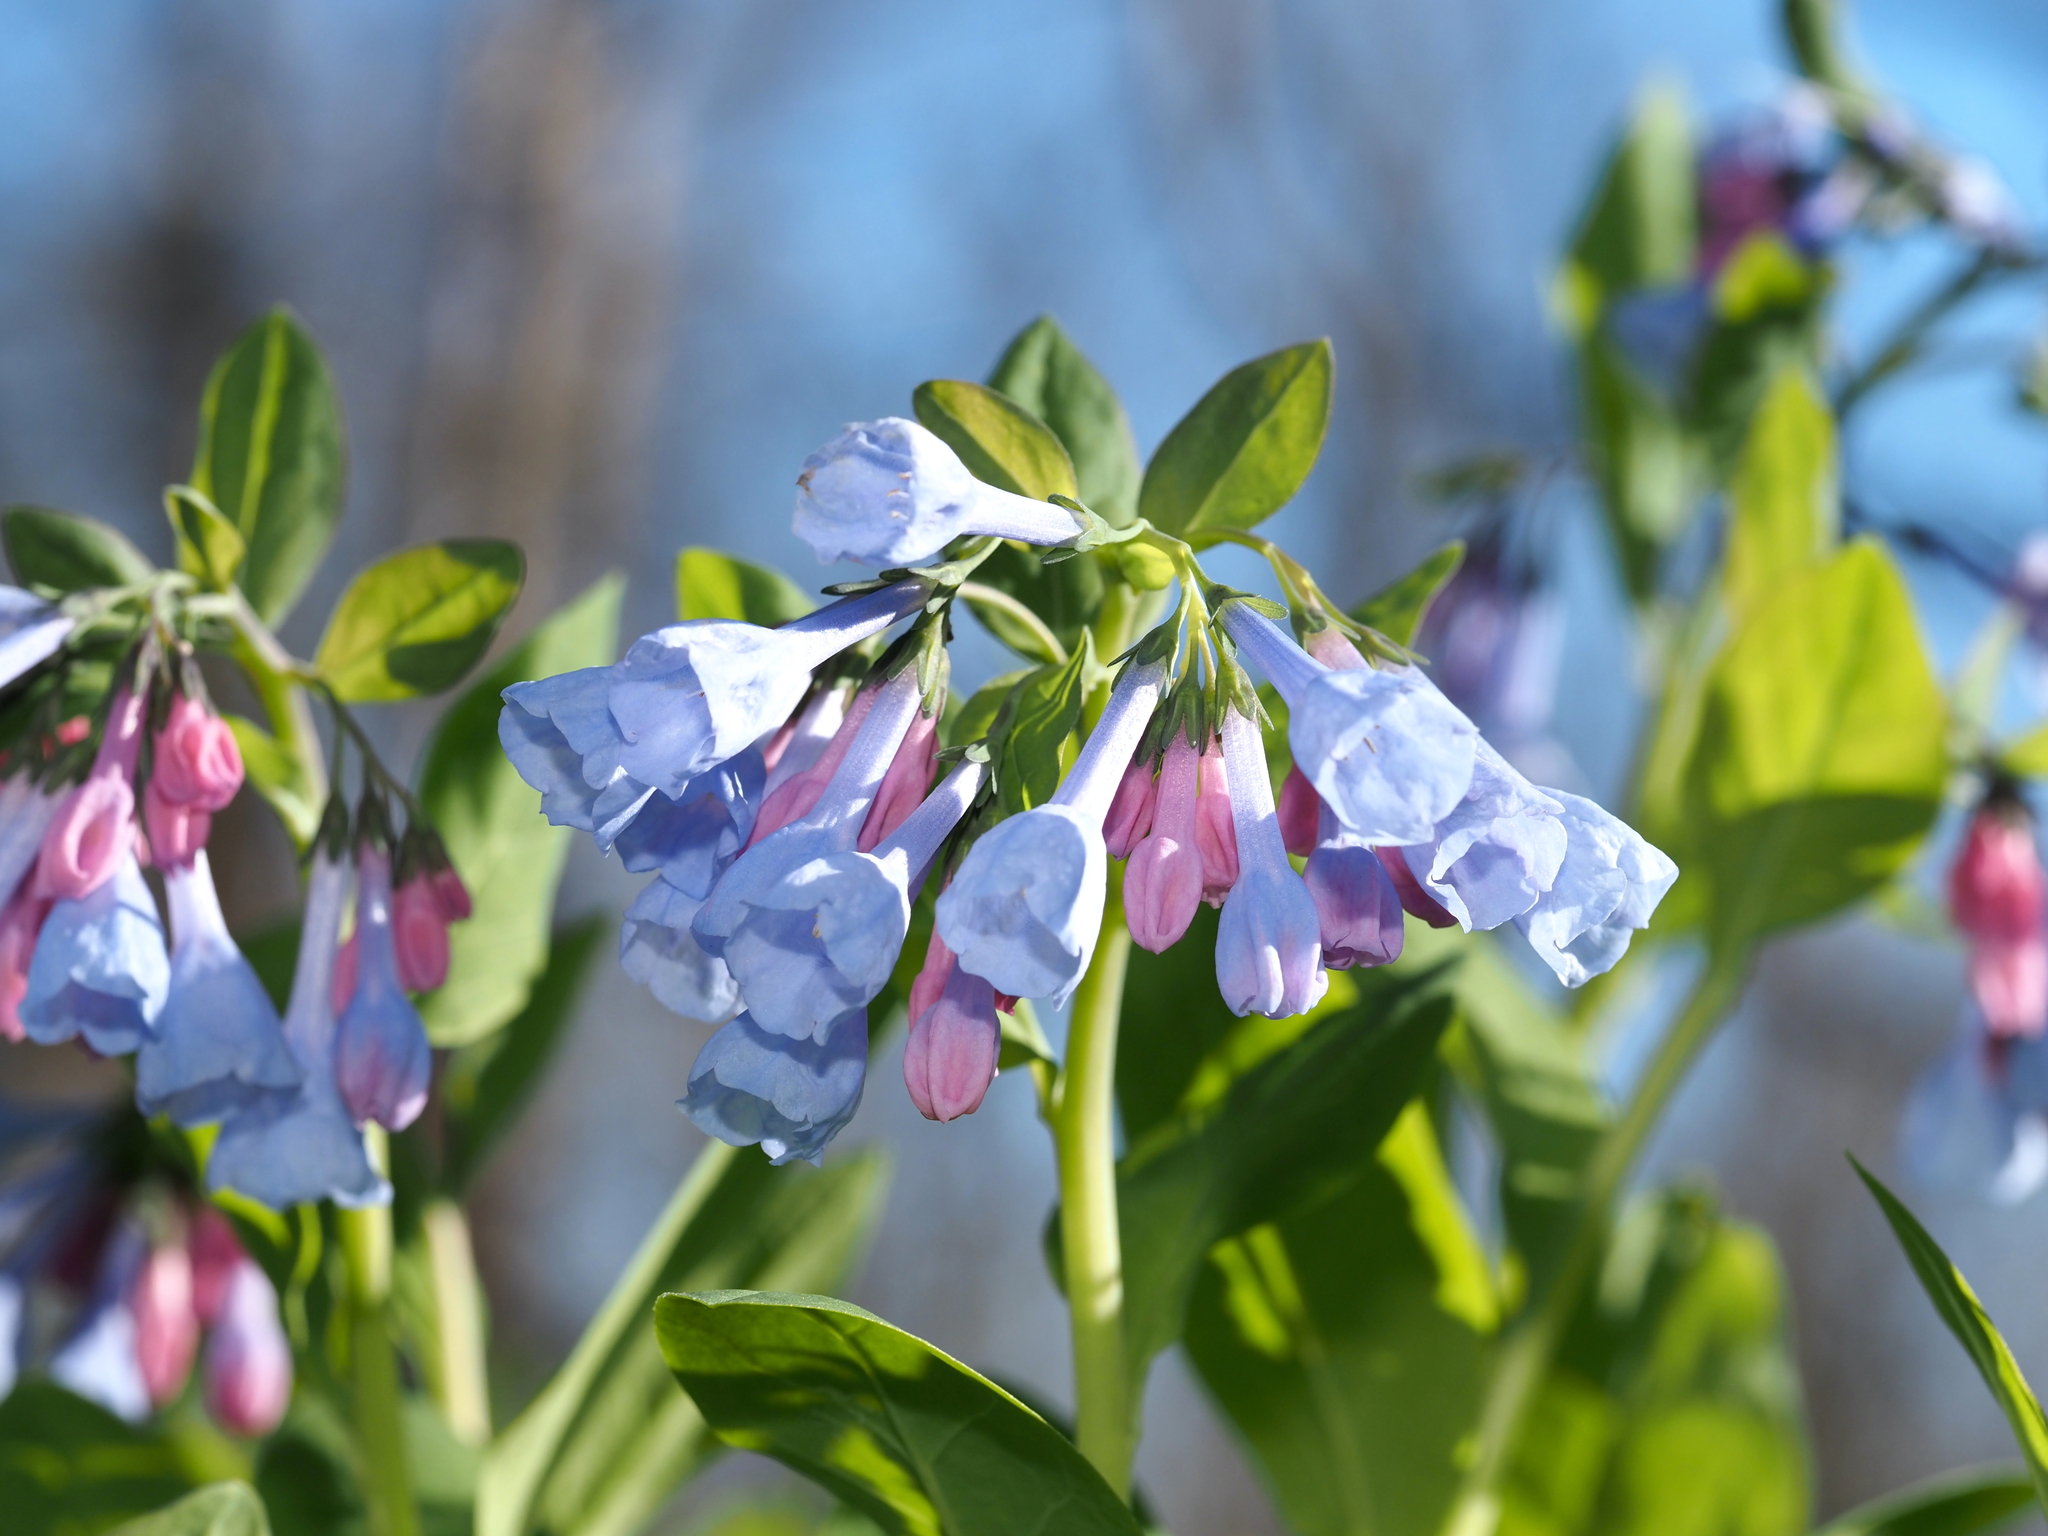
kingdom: Plantae
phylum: Tracheophyta
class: Magnoliopsida
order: Boraginales
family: Boraginaceae
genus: Mertensia
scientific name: Mertensia virginica
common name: Virginia bluebells
